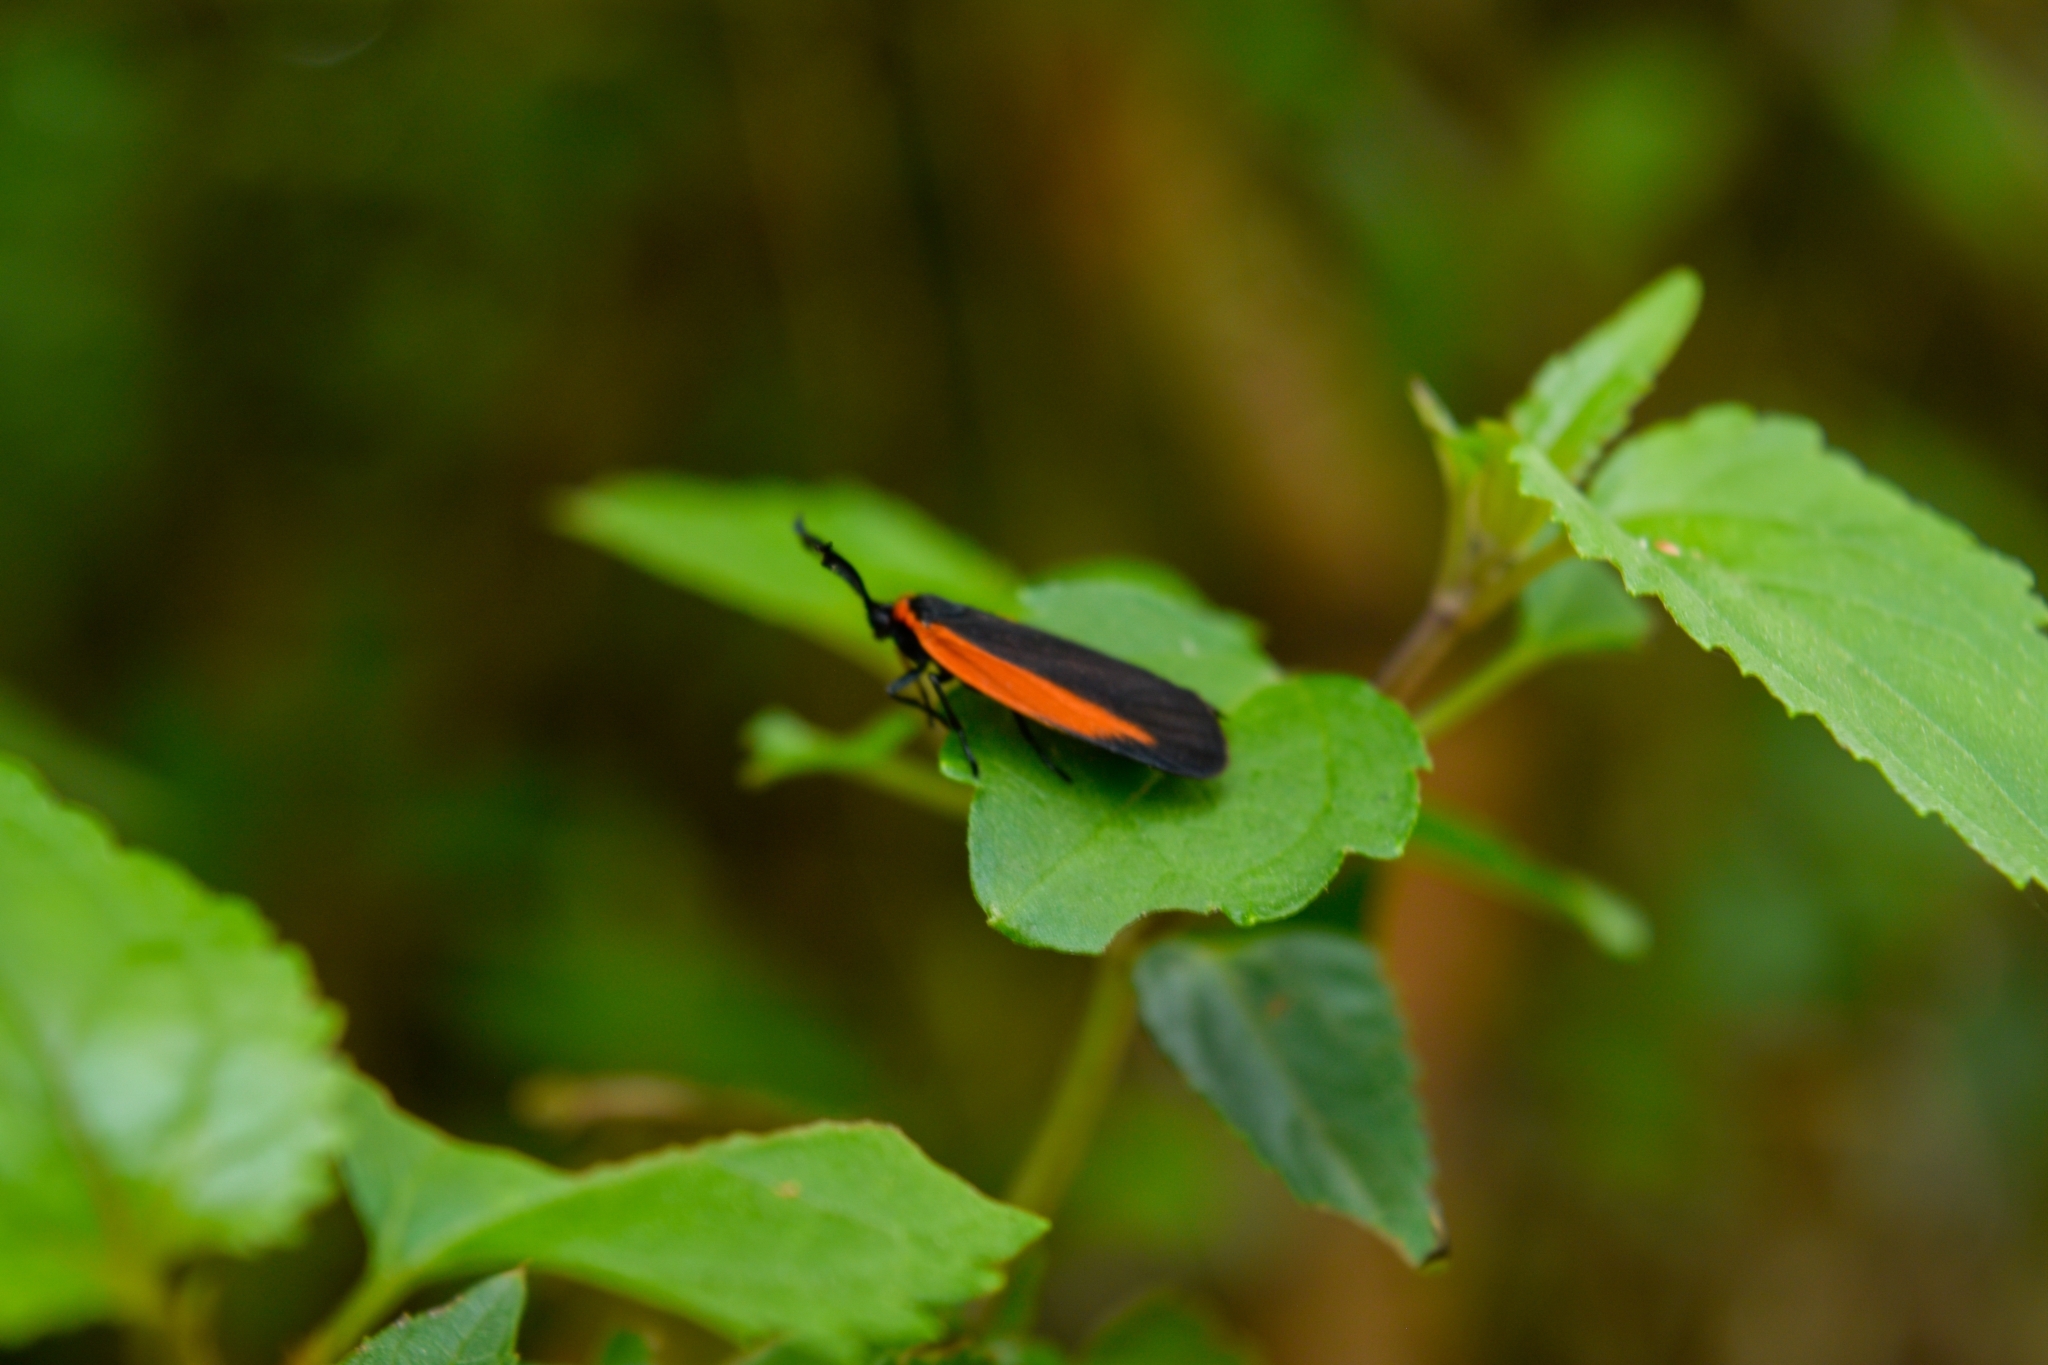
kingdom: Animalia
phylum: Arthropoda
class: Insecta
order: Lepidoptera
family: Zygaenidae
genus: Malthaca
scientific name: Malthaca Pyromorpha brueckneri
